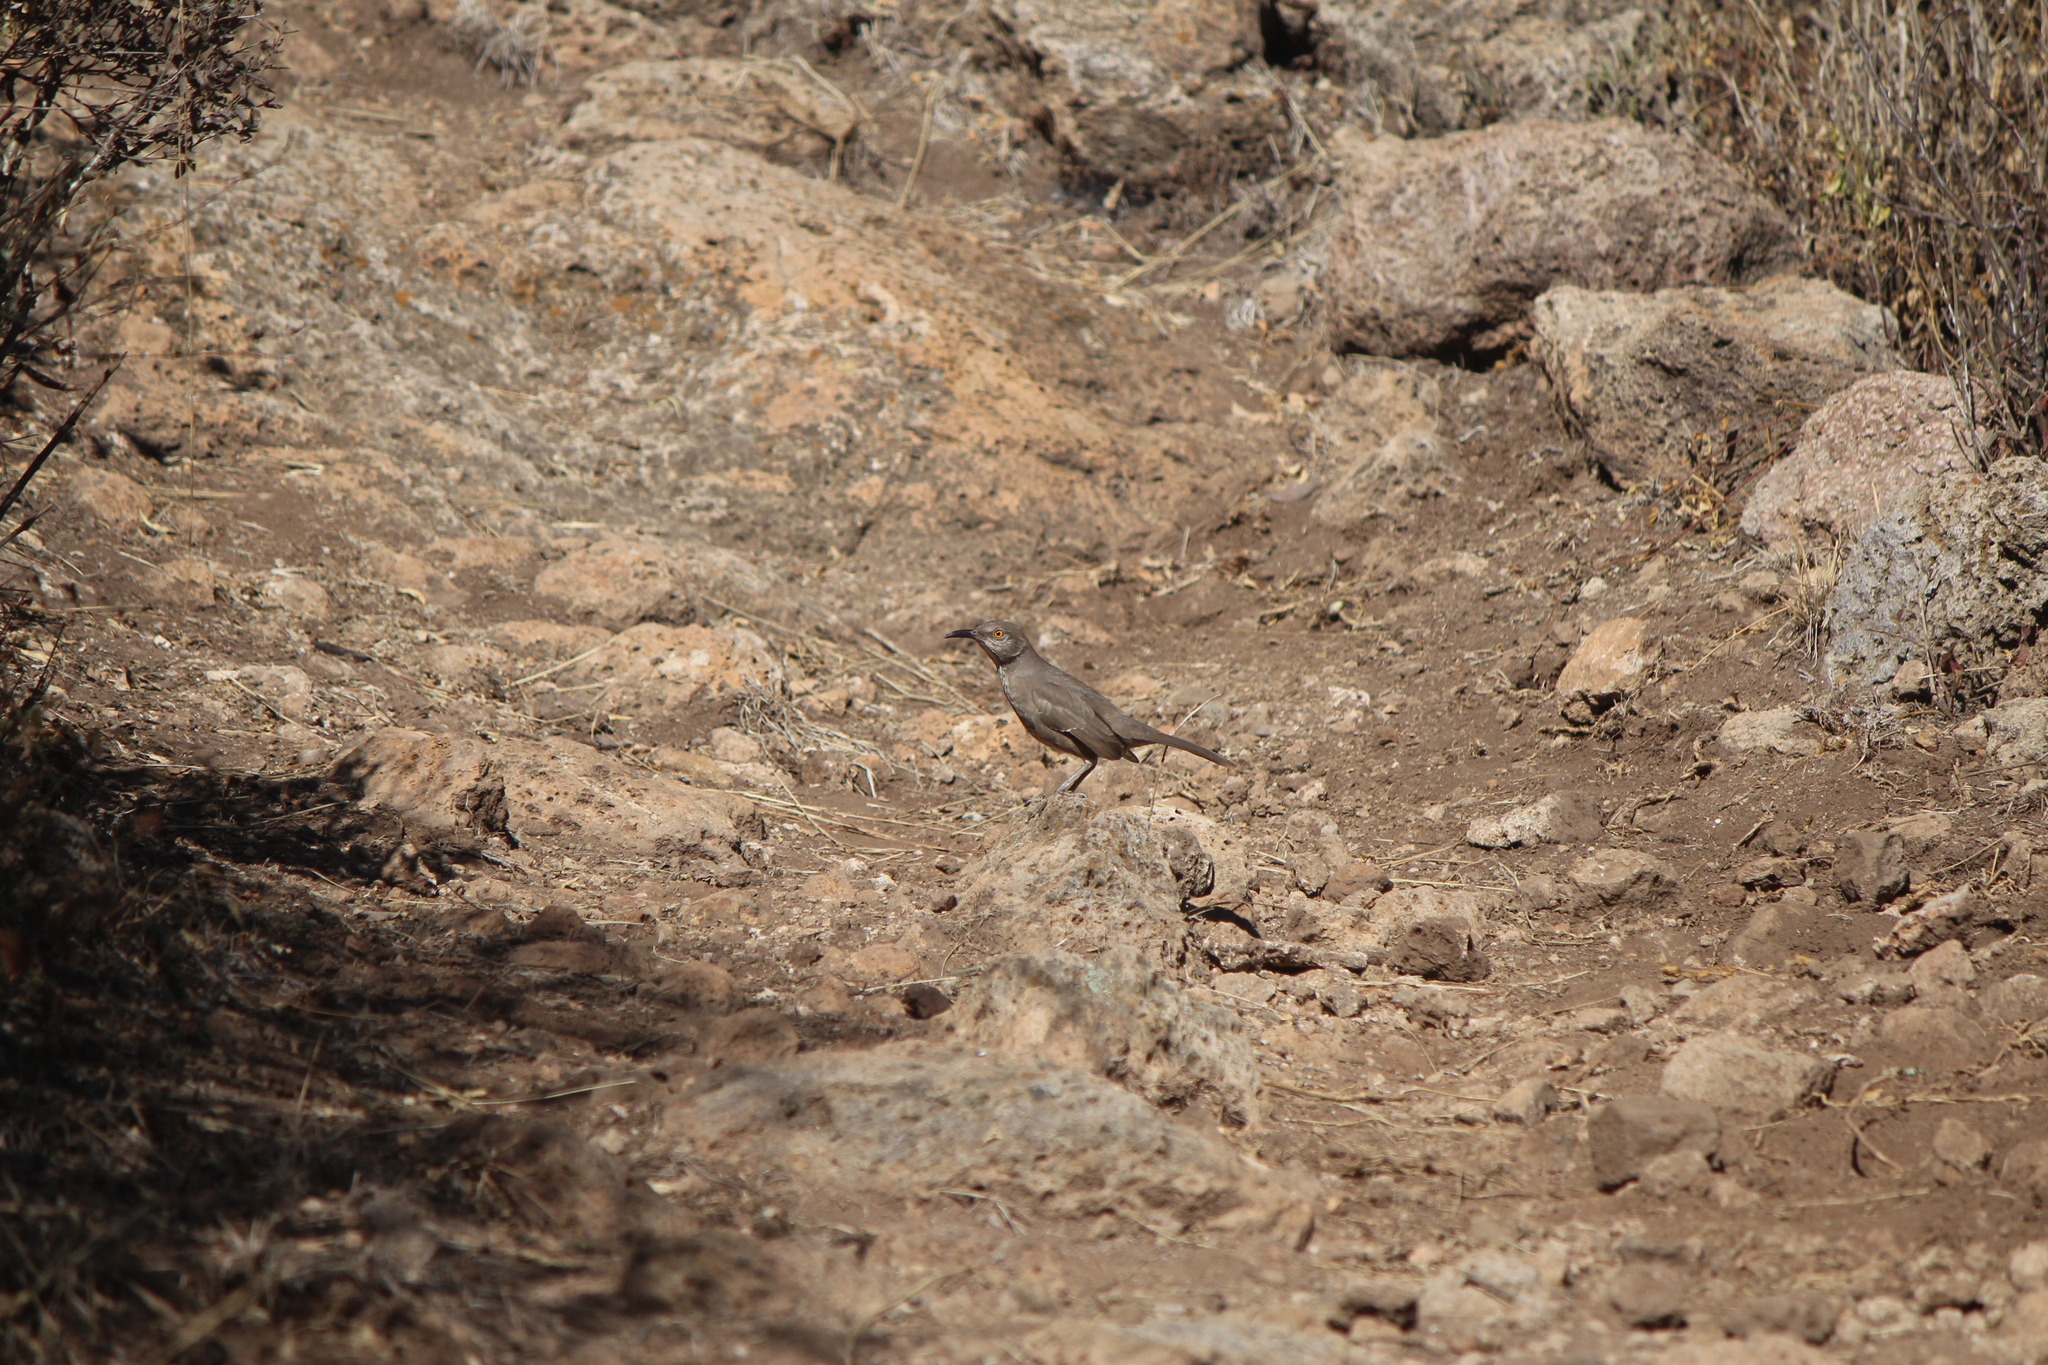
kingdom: Animalia
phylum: Chordata
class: Aves
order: Passeriformes
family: Mimidae
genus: Toxostoma
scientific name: Toxostoma curvirostre
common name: Curve-billed thrasher
